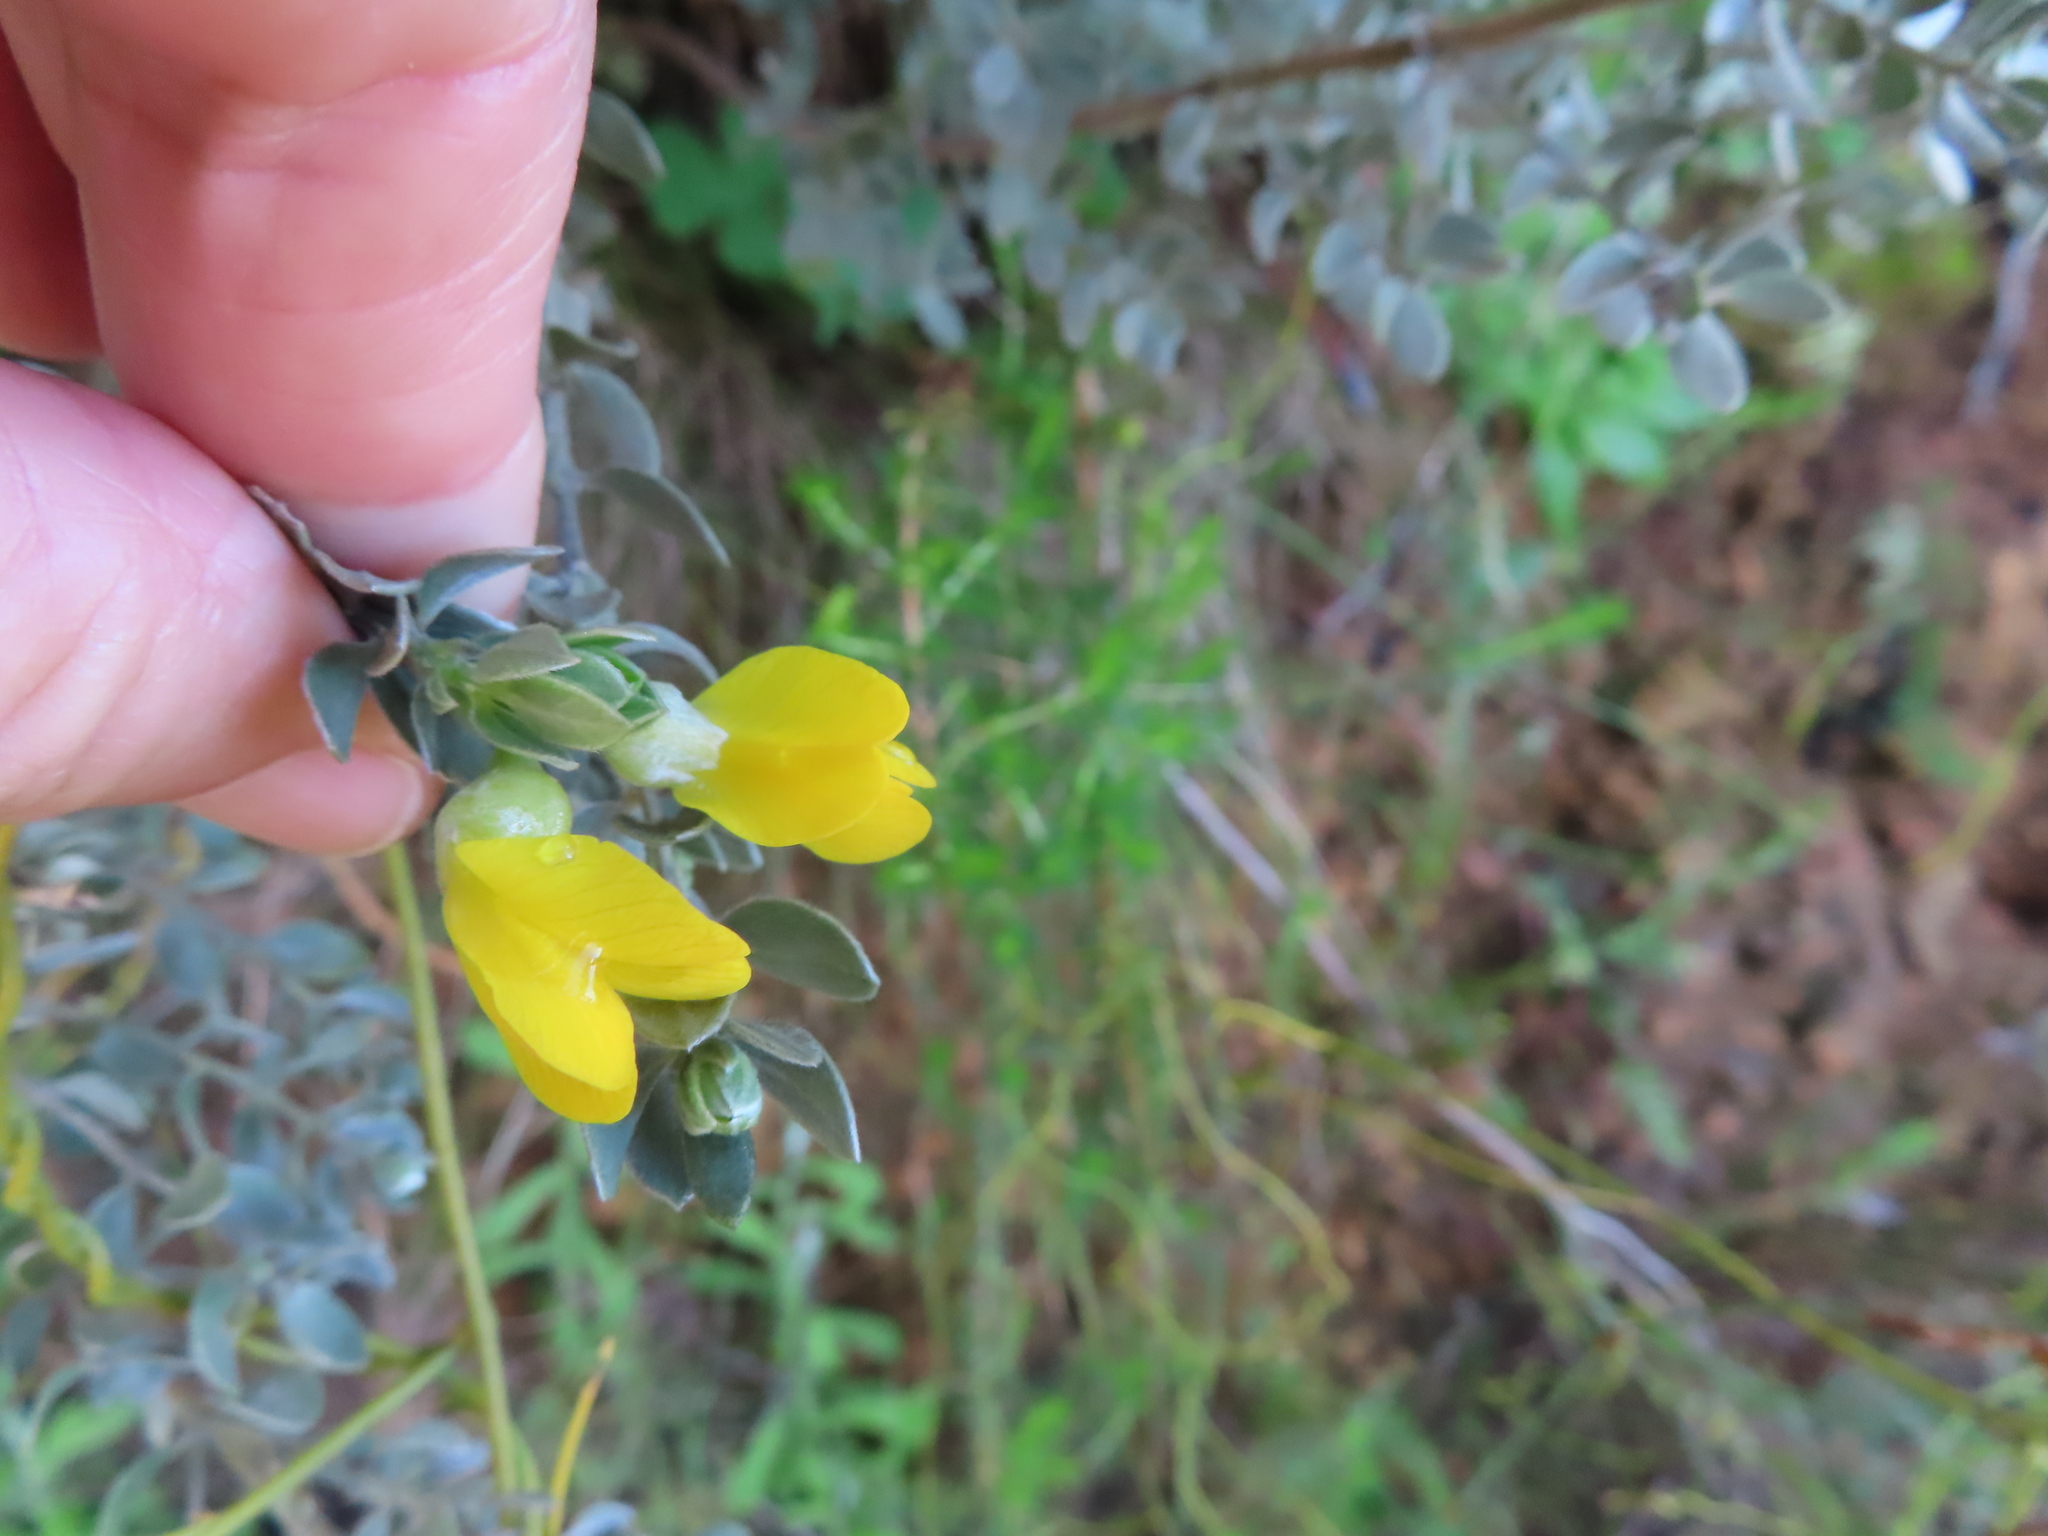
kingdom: Plantae
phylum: Tracheophyta
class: Magnoliopsida
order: Fabales
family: Fabaceae
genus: Xiphotheca
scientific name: Xiphotheca fruticosa
